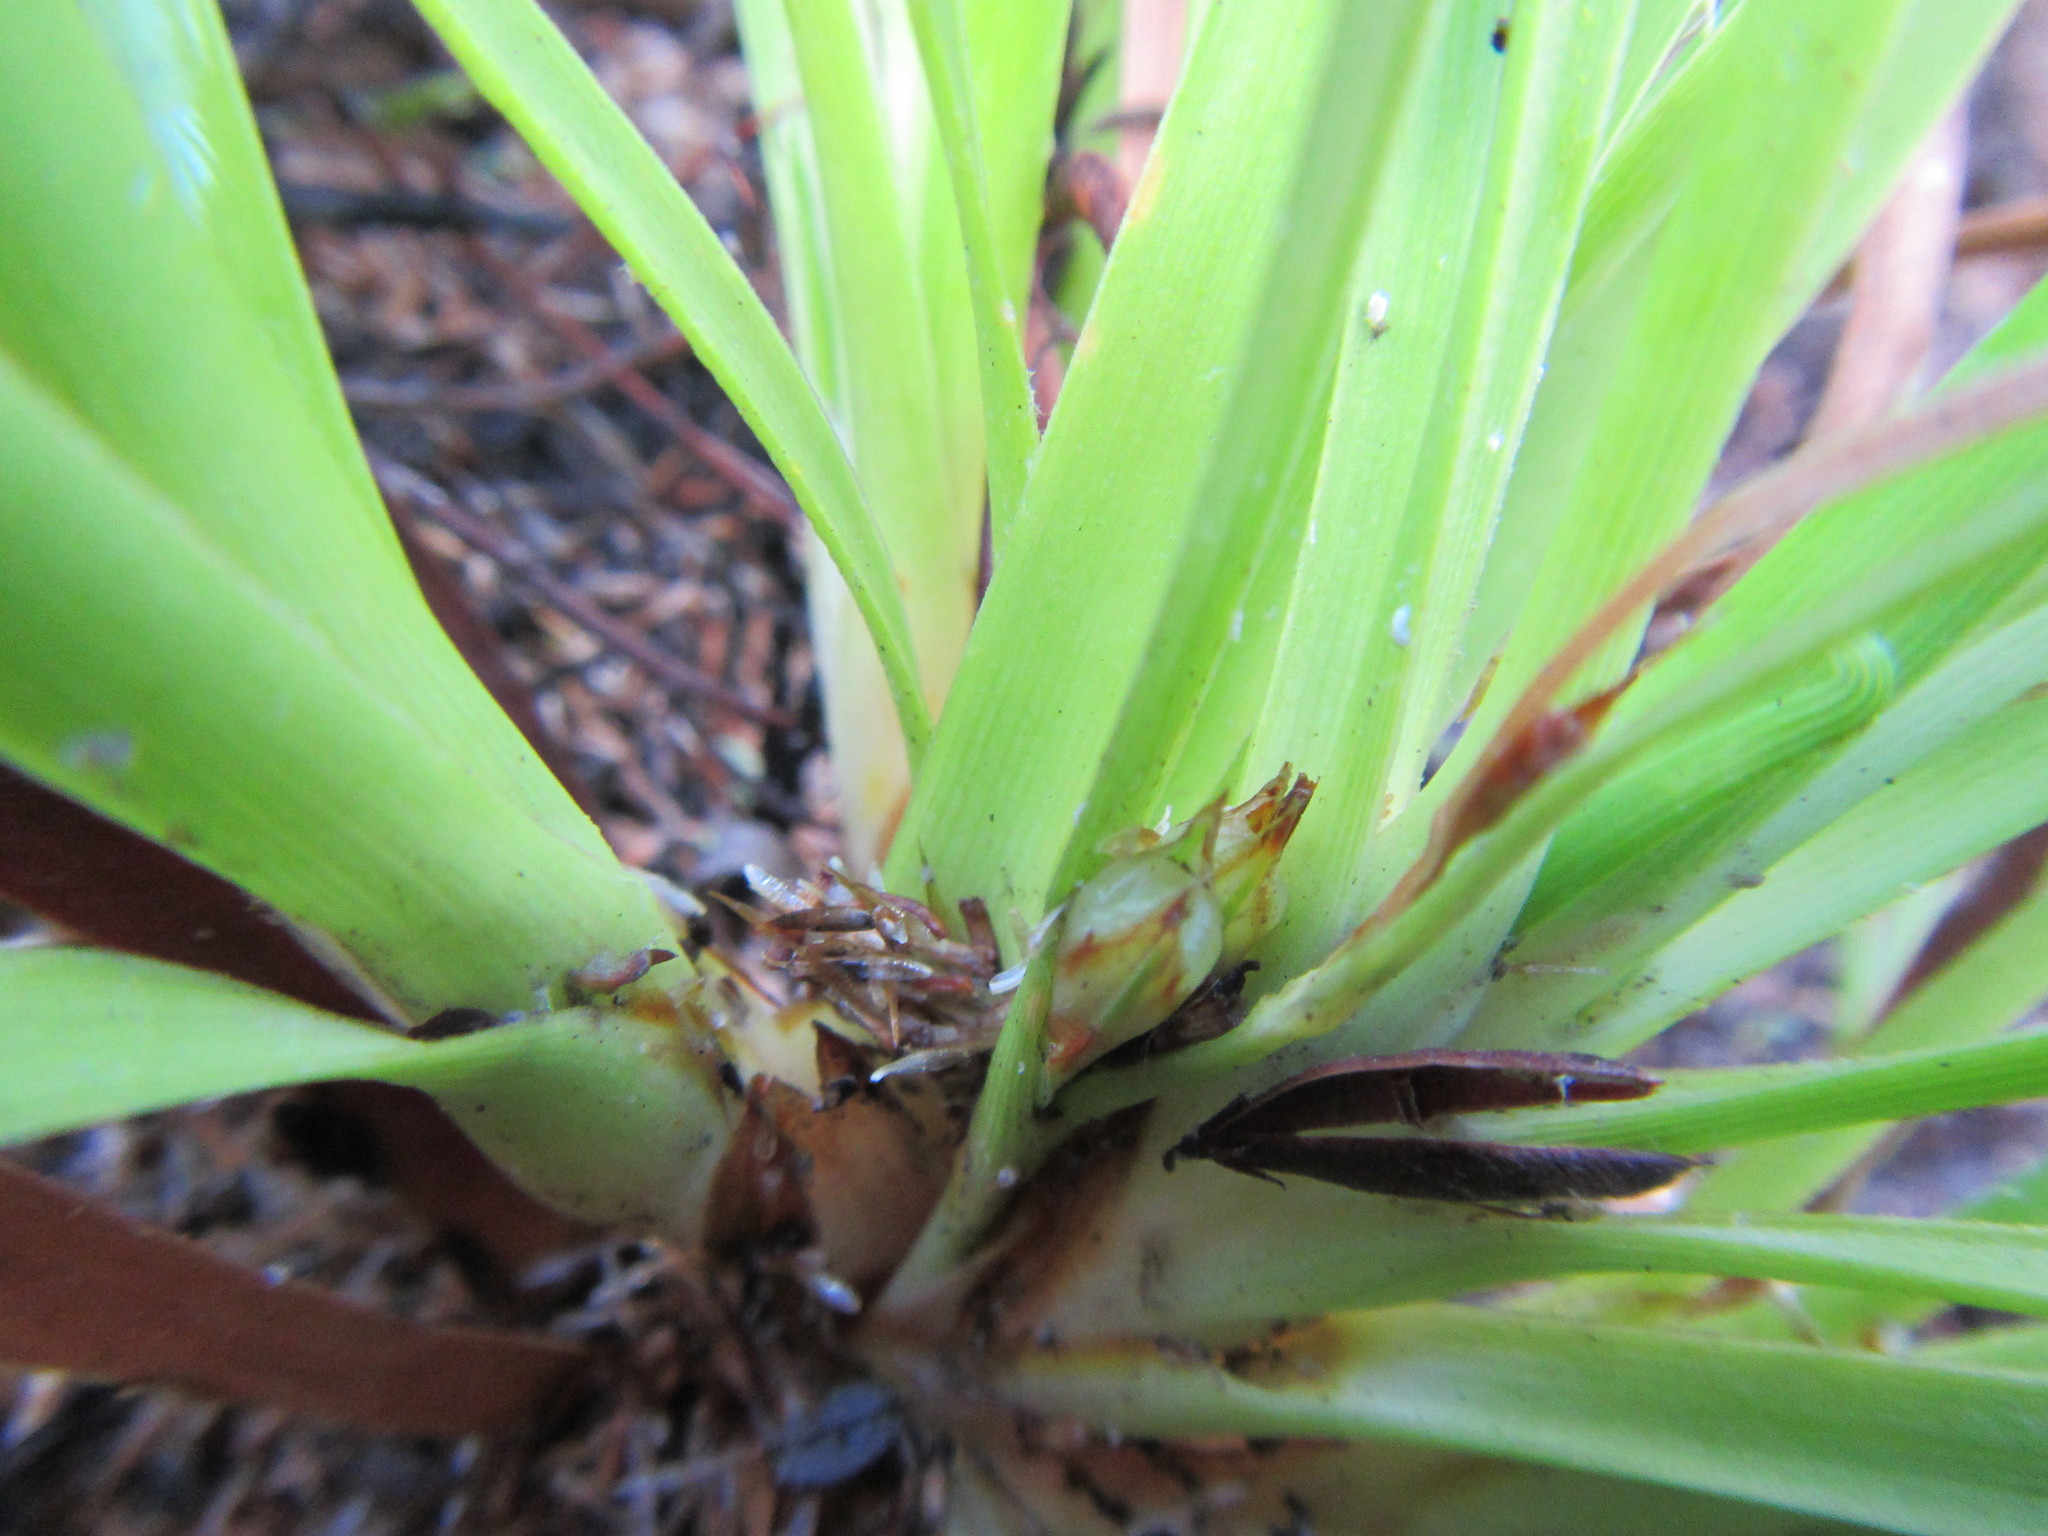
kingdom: Plantae
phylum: Tracheophyta
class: Liliopsida
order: Poales
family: Cyperaceae
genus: Capeobolus
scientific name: Capeobolus brevicaulis
